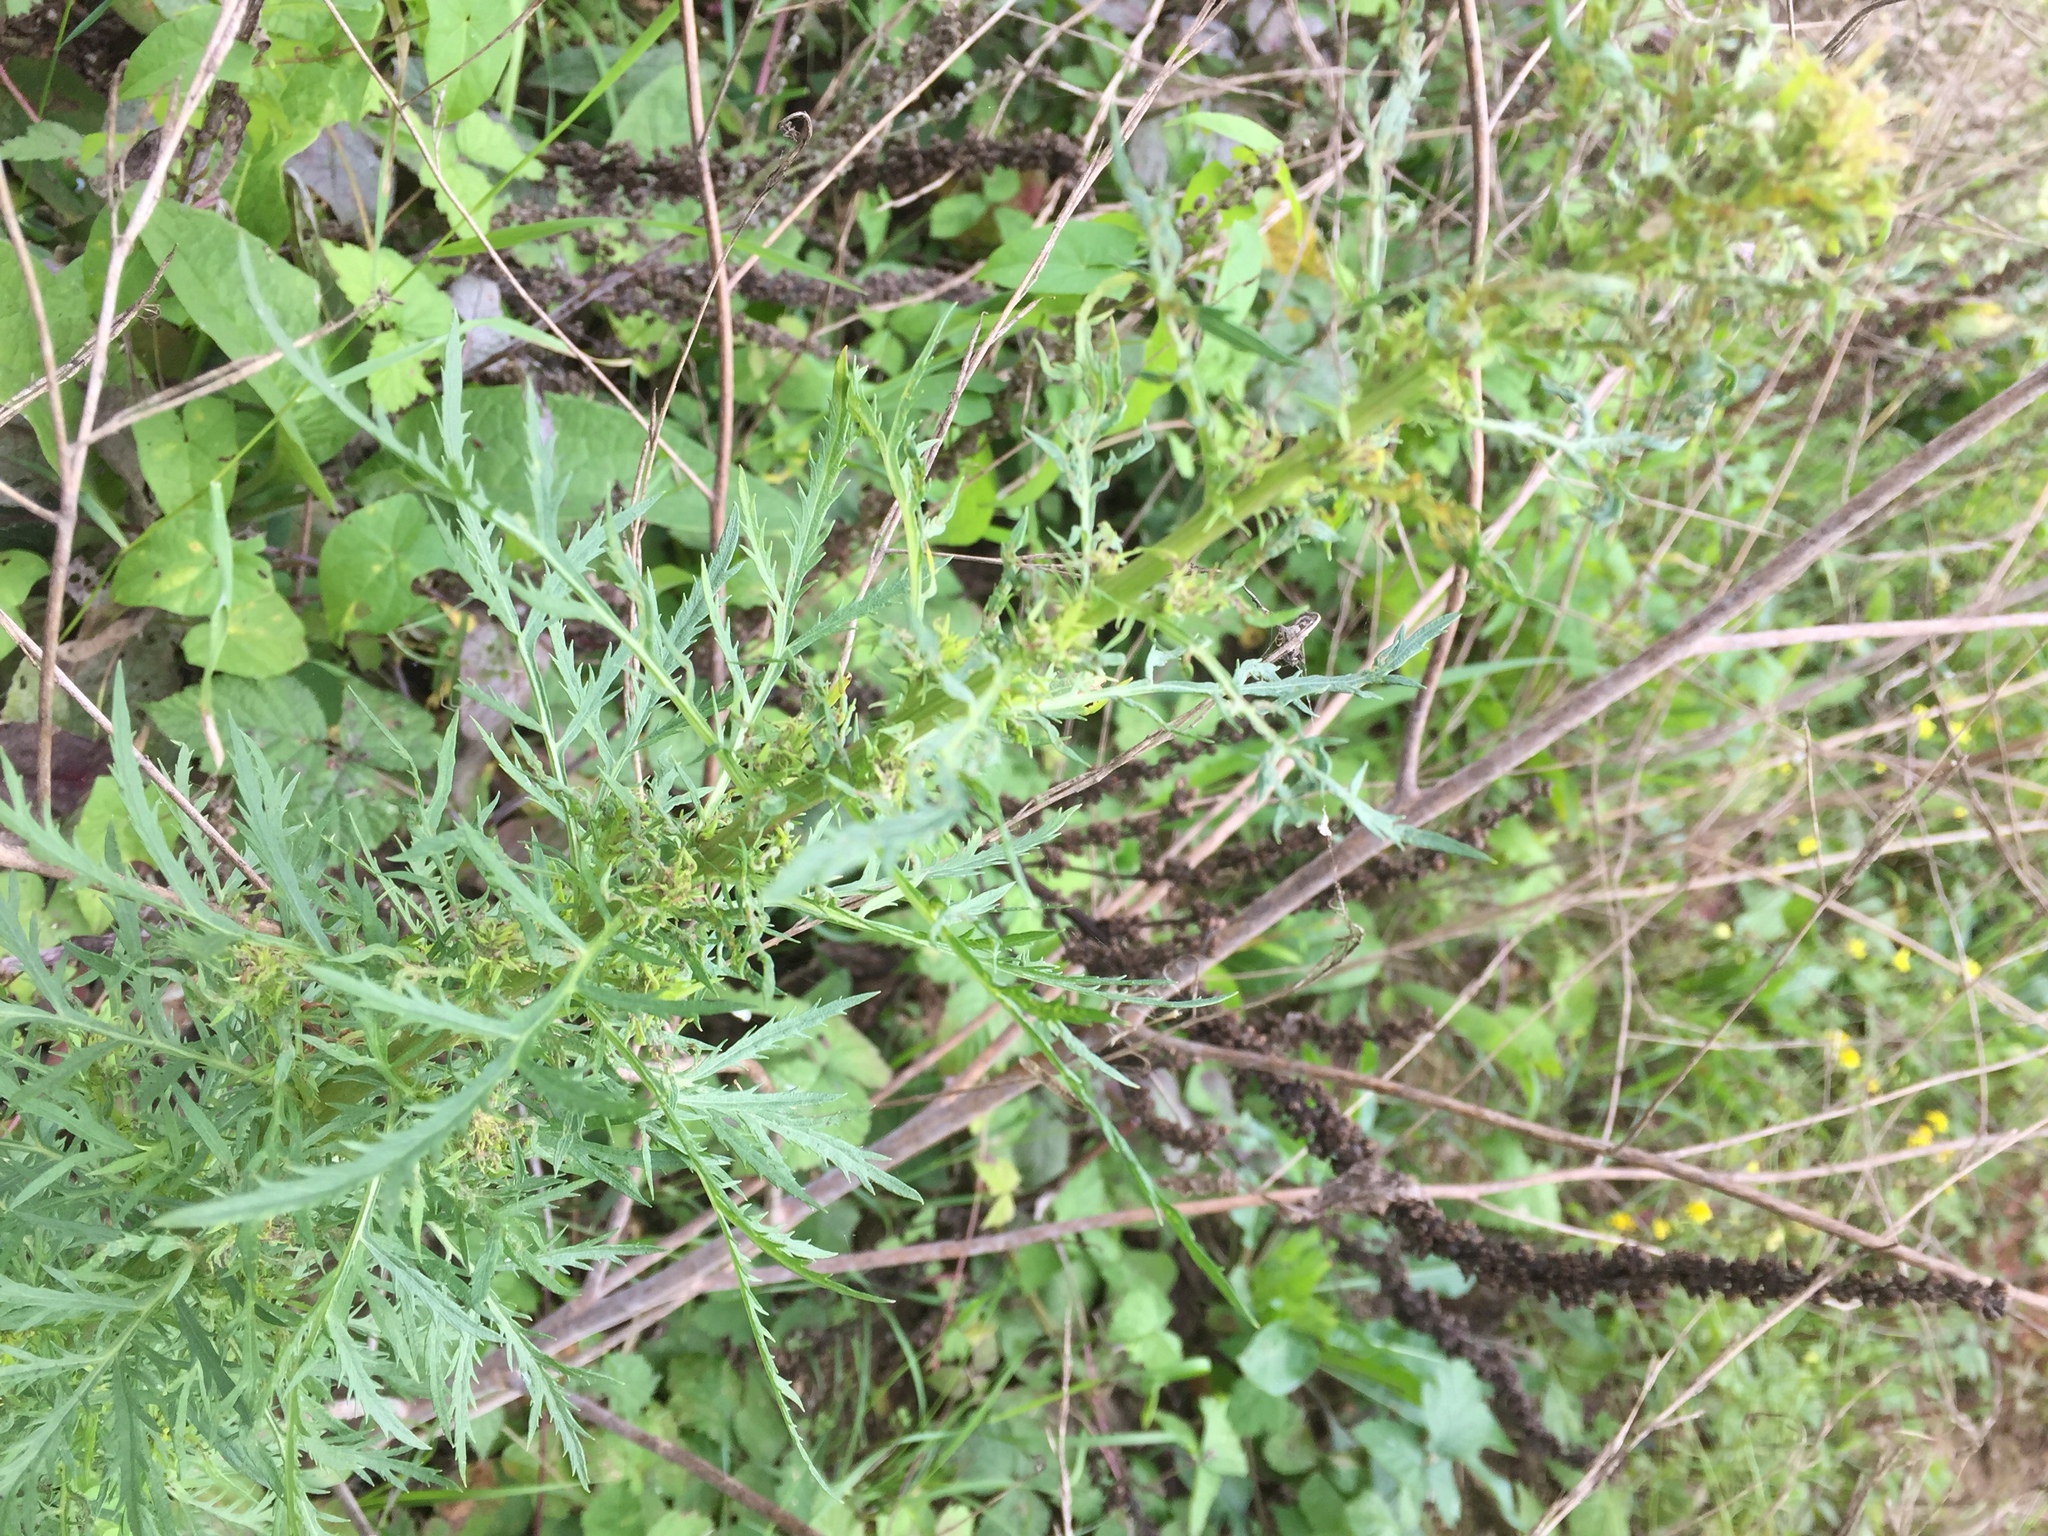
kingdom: Plantae
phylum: Tracheophyta
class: Magnoliopsida
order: Asterales
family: Asteraceae
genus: Artemisia
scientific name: Artemisia biennis
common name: Biennial wormwood
